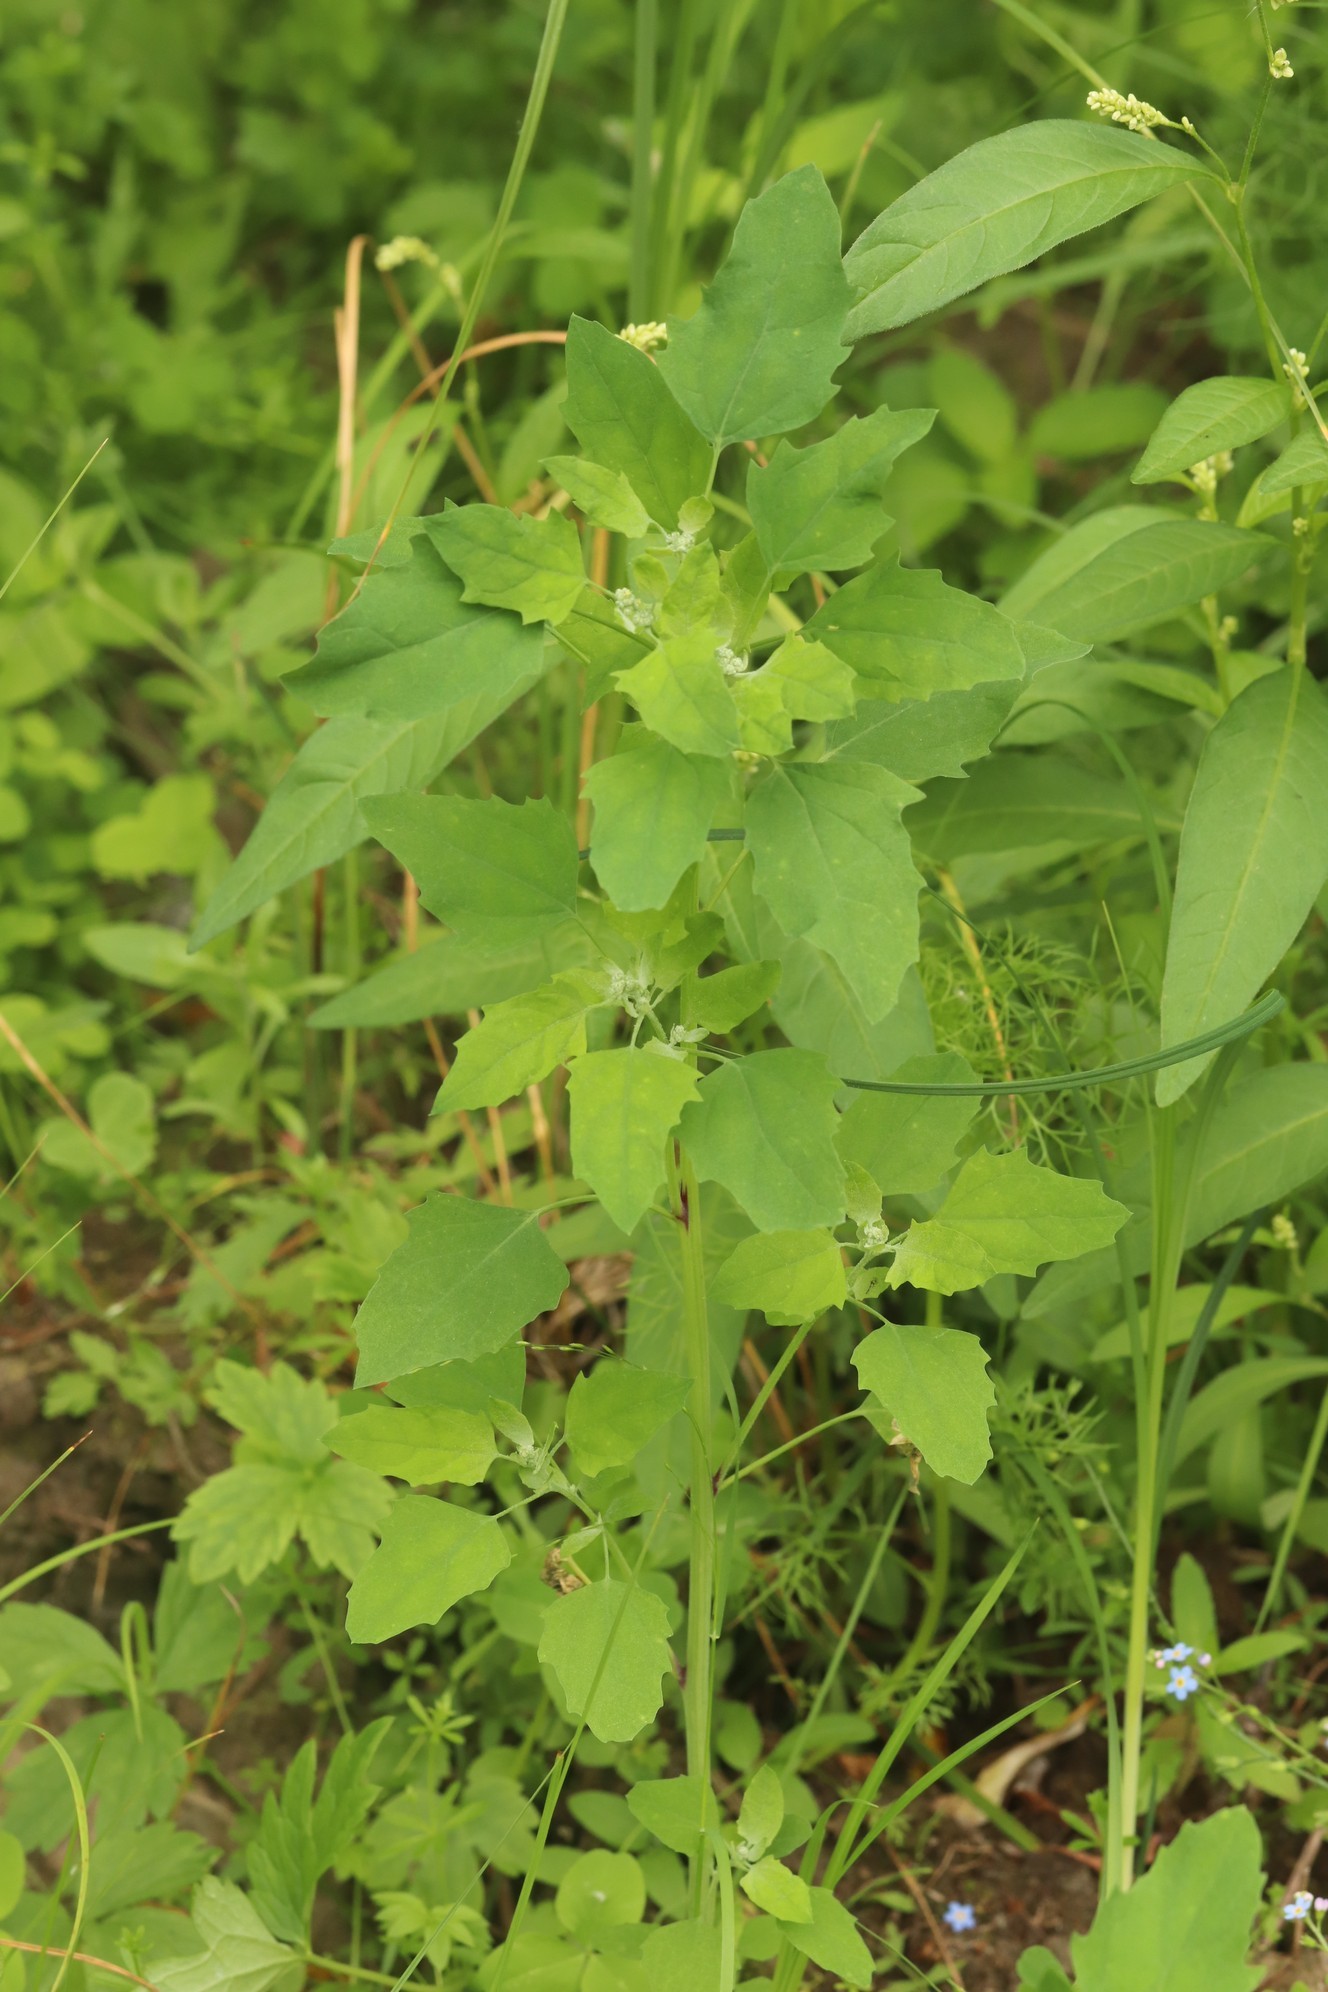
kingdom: Plantae
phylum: Tracheophyta
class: Magnoliopsida
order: Caryophyllales
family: Amaranthaceae
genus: Chenopodium
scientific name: Chenopodium album
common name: Fat-hen
